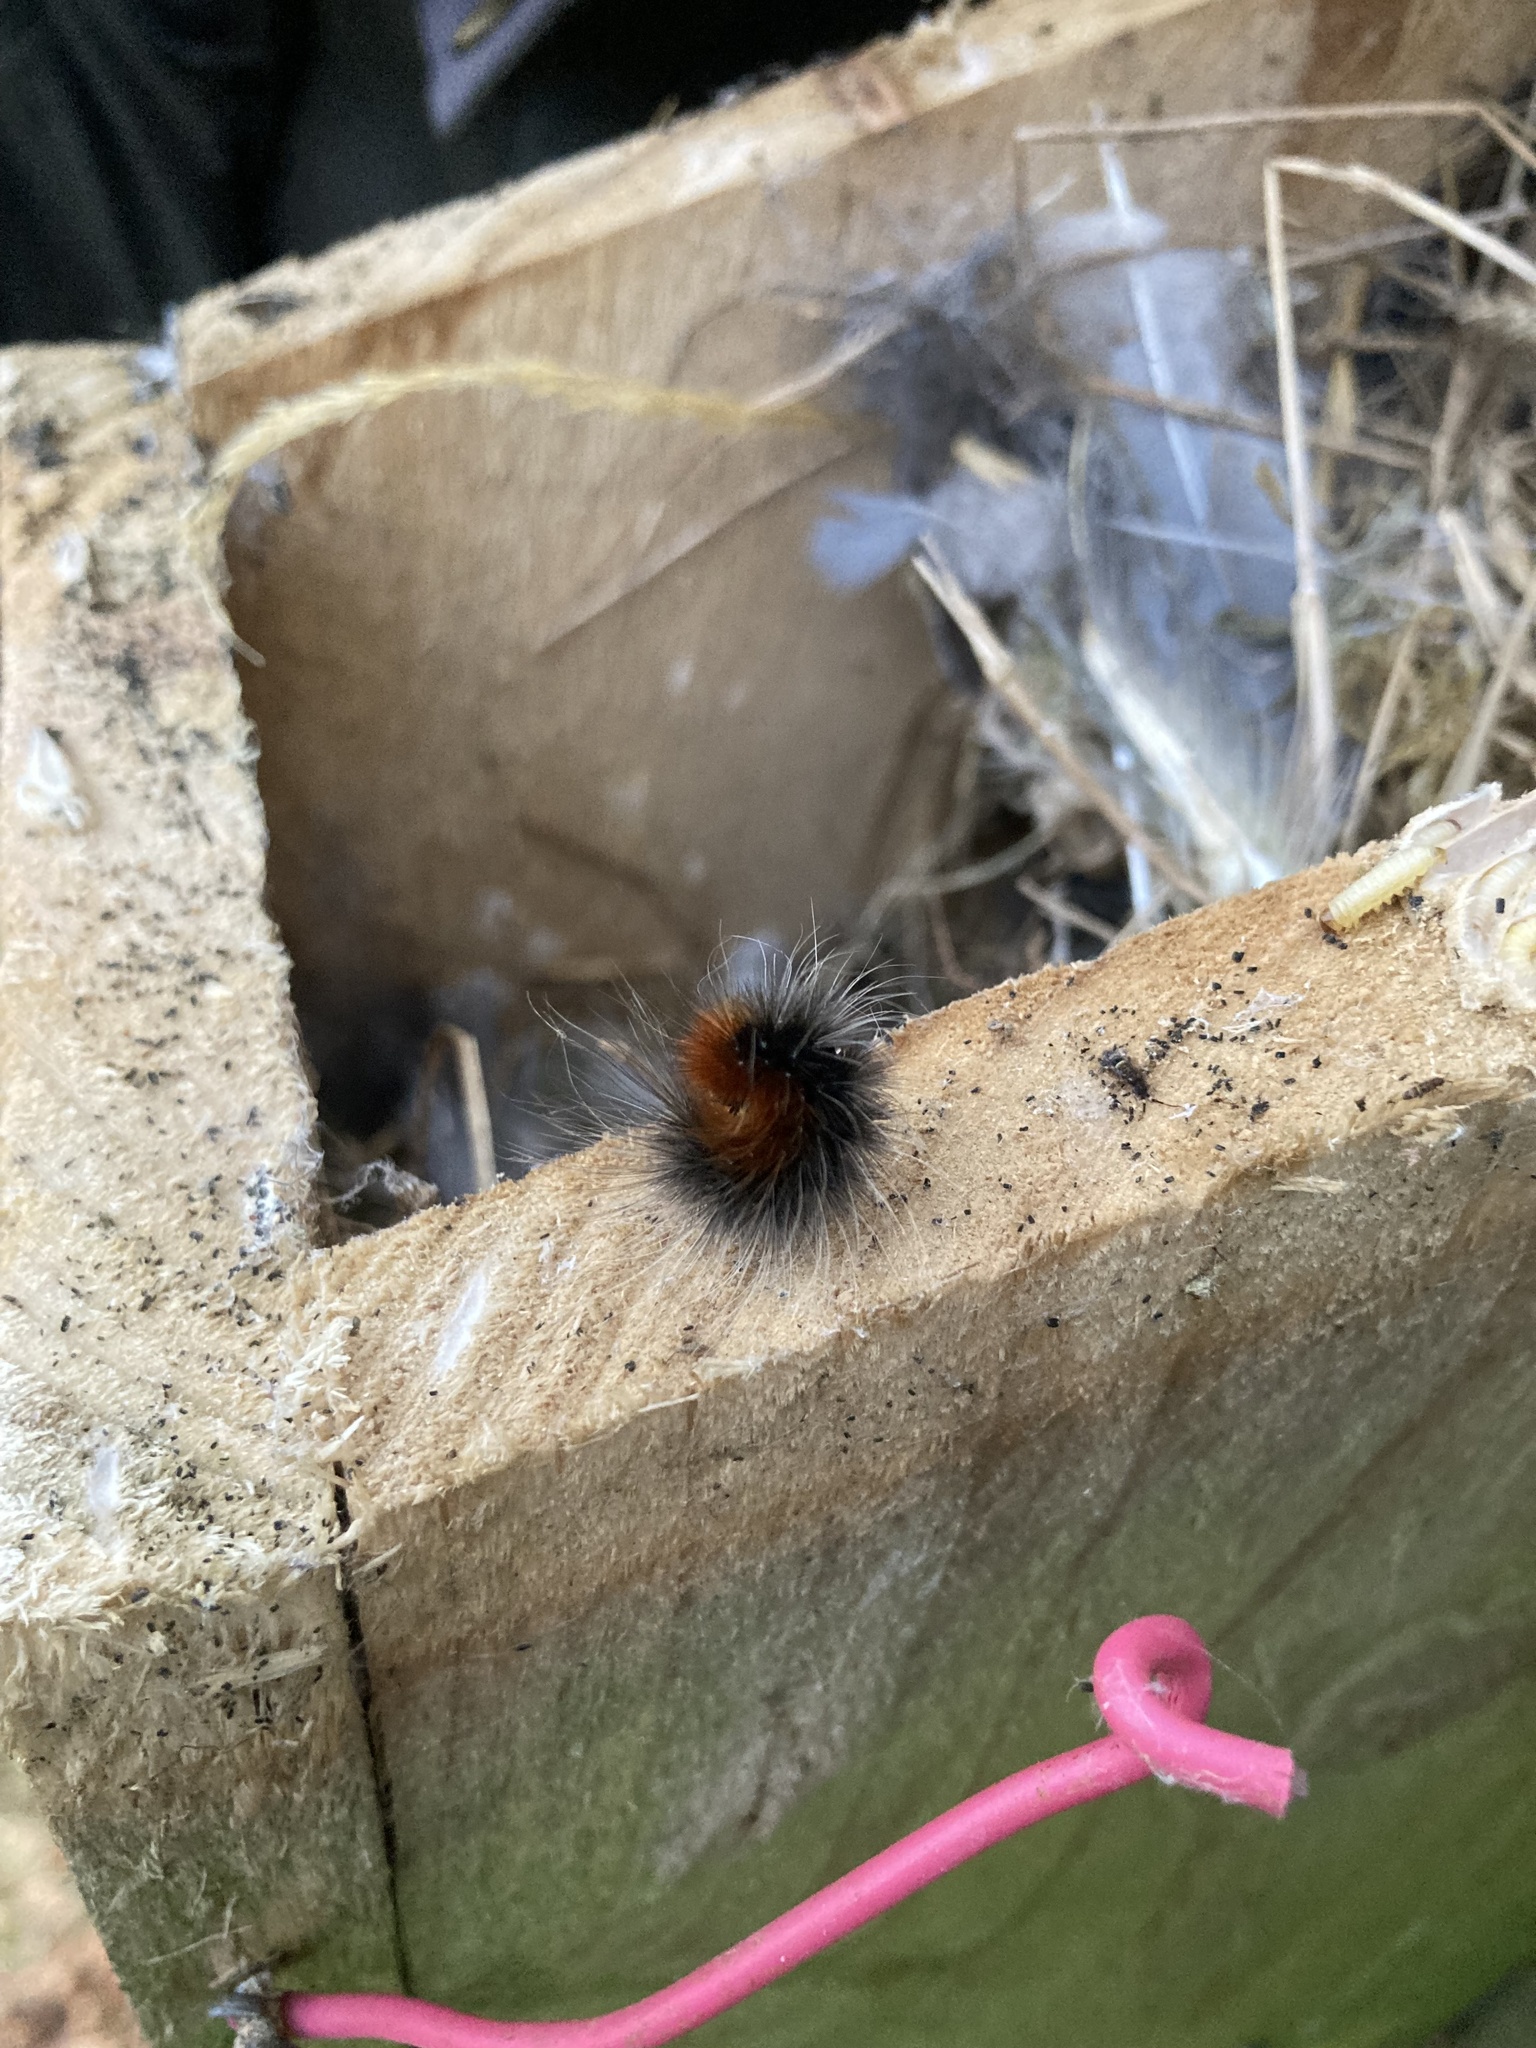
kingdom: Animalia
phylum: Arthropoda
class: Insecta
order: Lepidoptera
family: Erebidae
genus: Arctia
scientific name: Arctia caja
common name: Garden tiger
